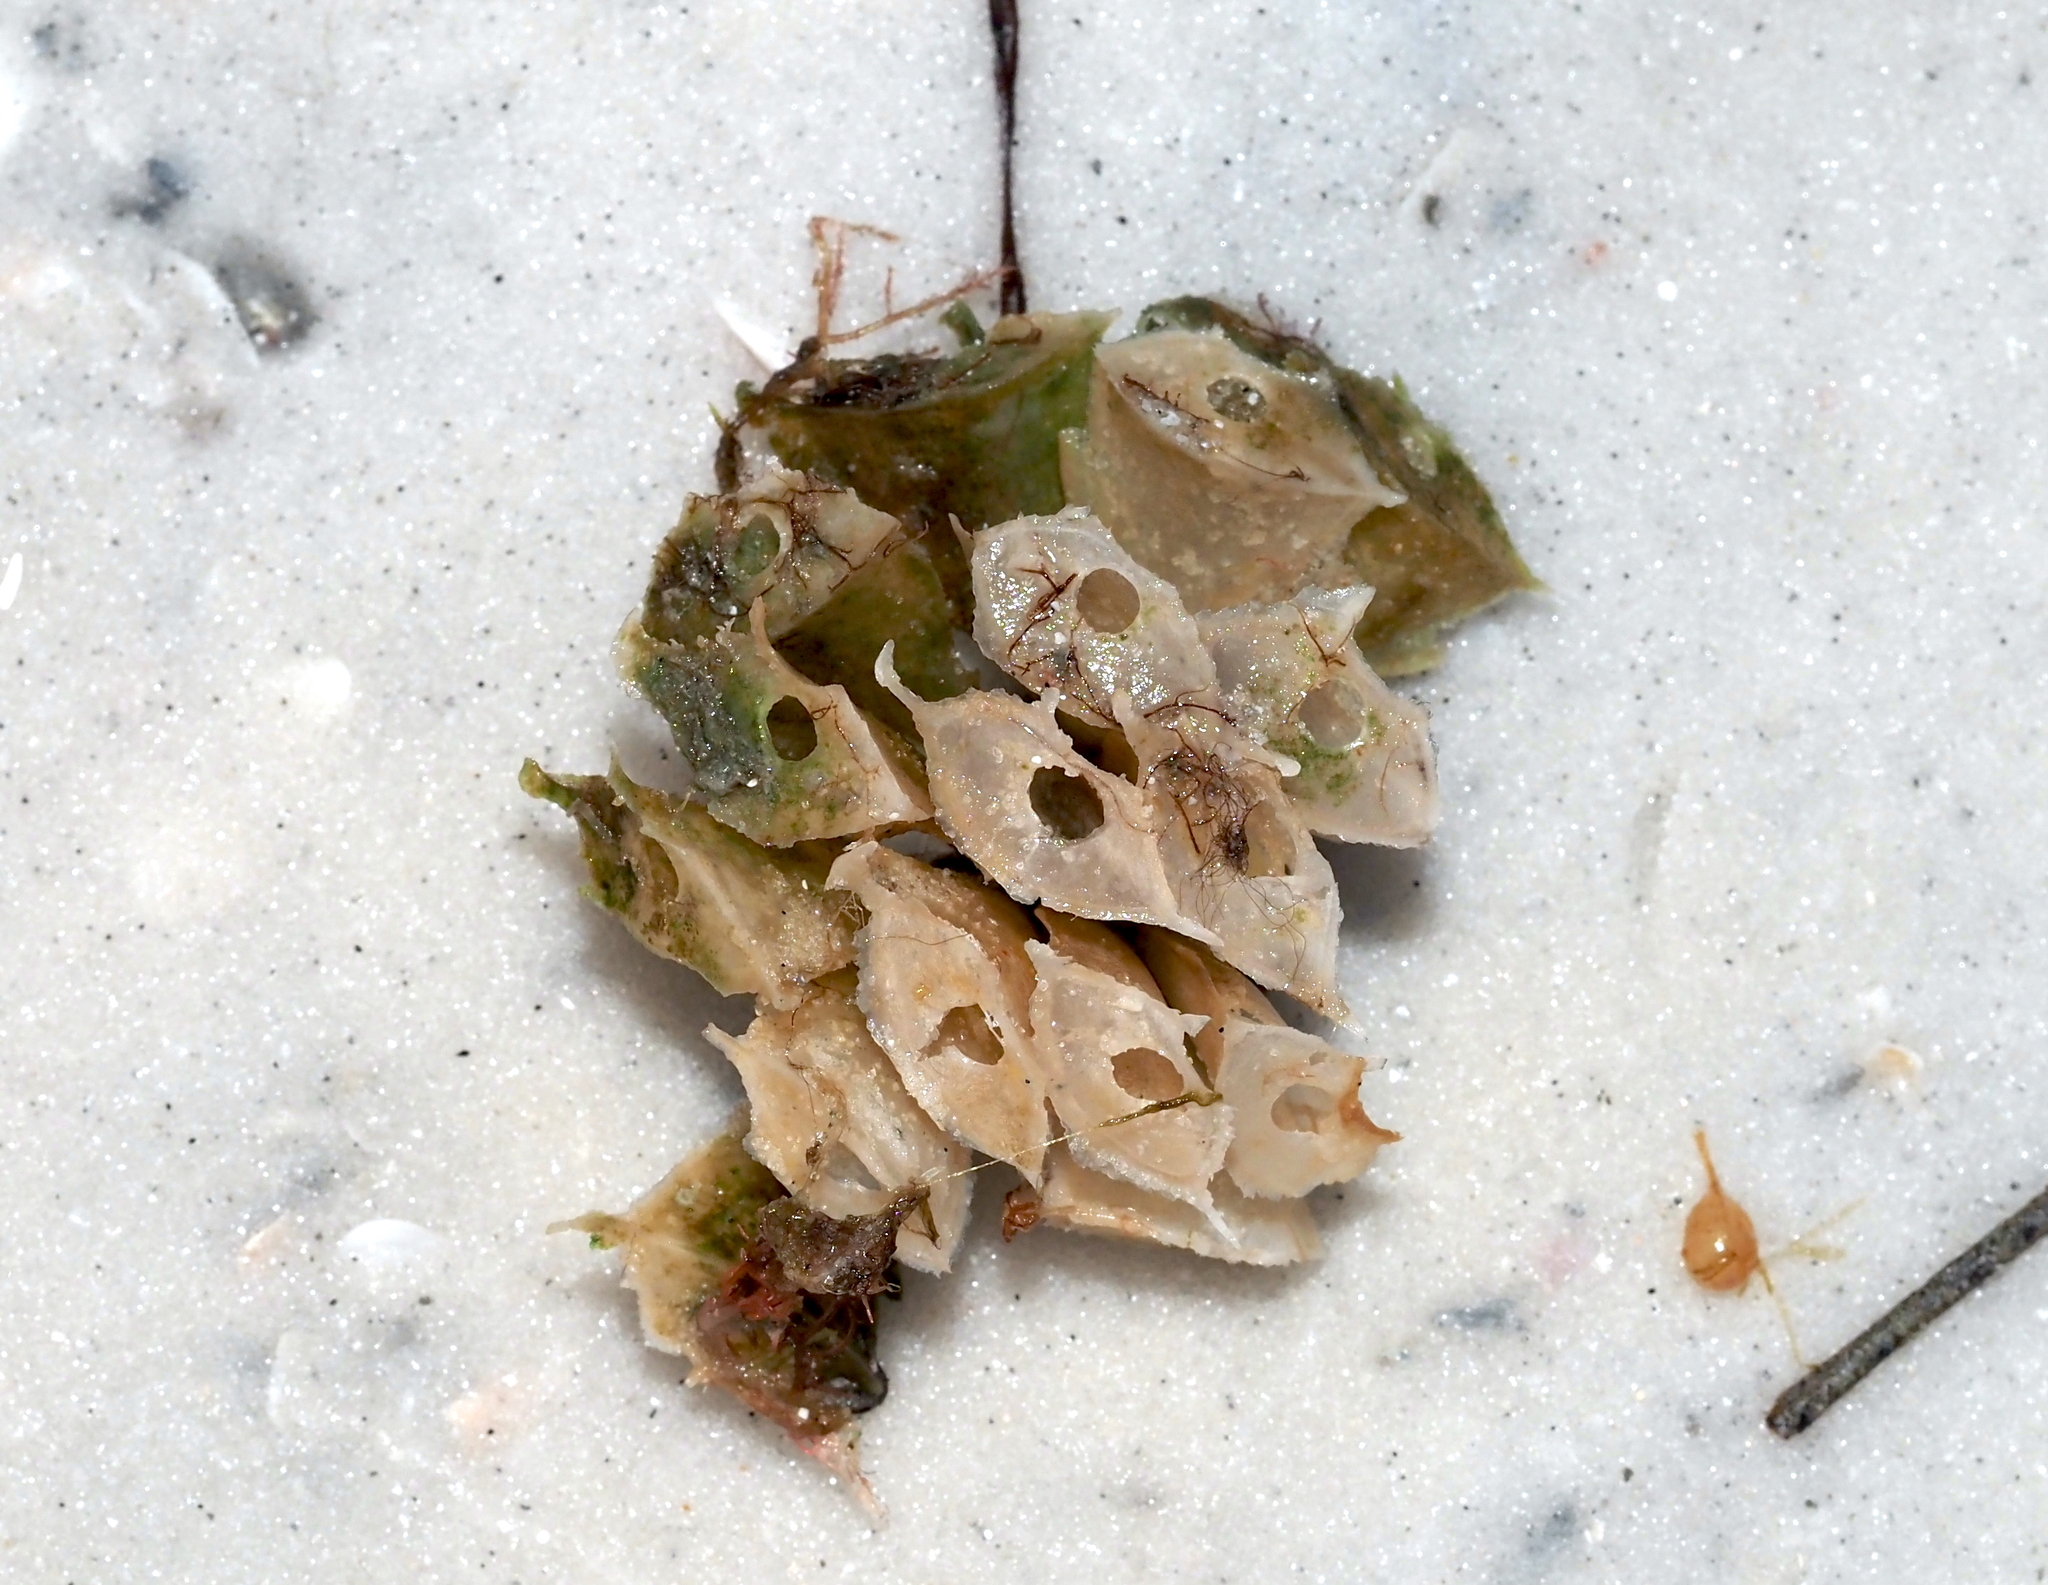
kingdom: Animalia
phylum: Mollusca
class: Gastropoda
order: Neogastropoda
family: Fasciolariidae
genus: Cinctura
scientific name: Cinctura hunteria
